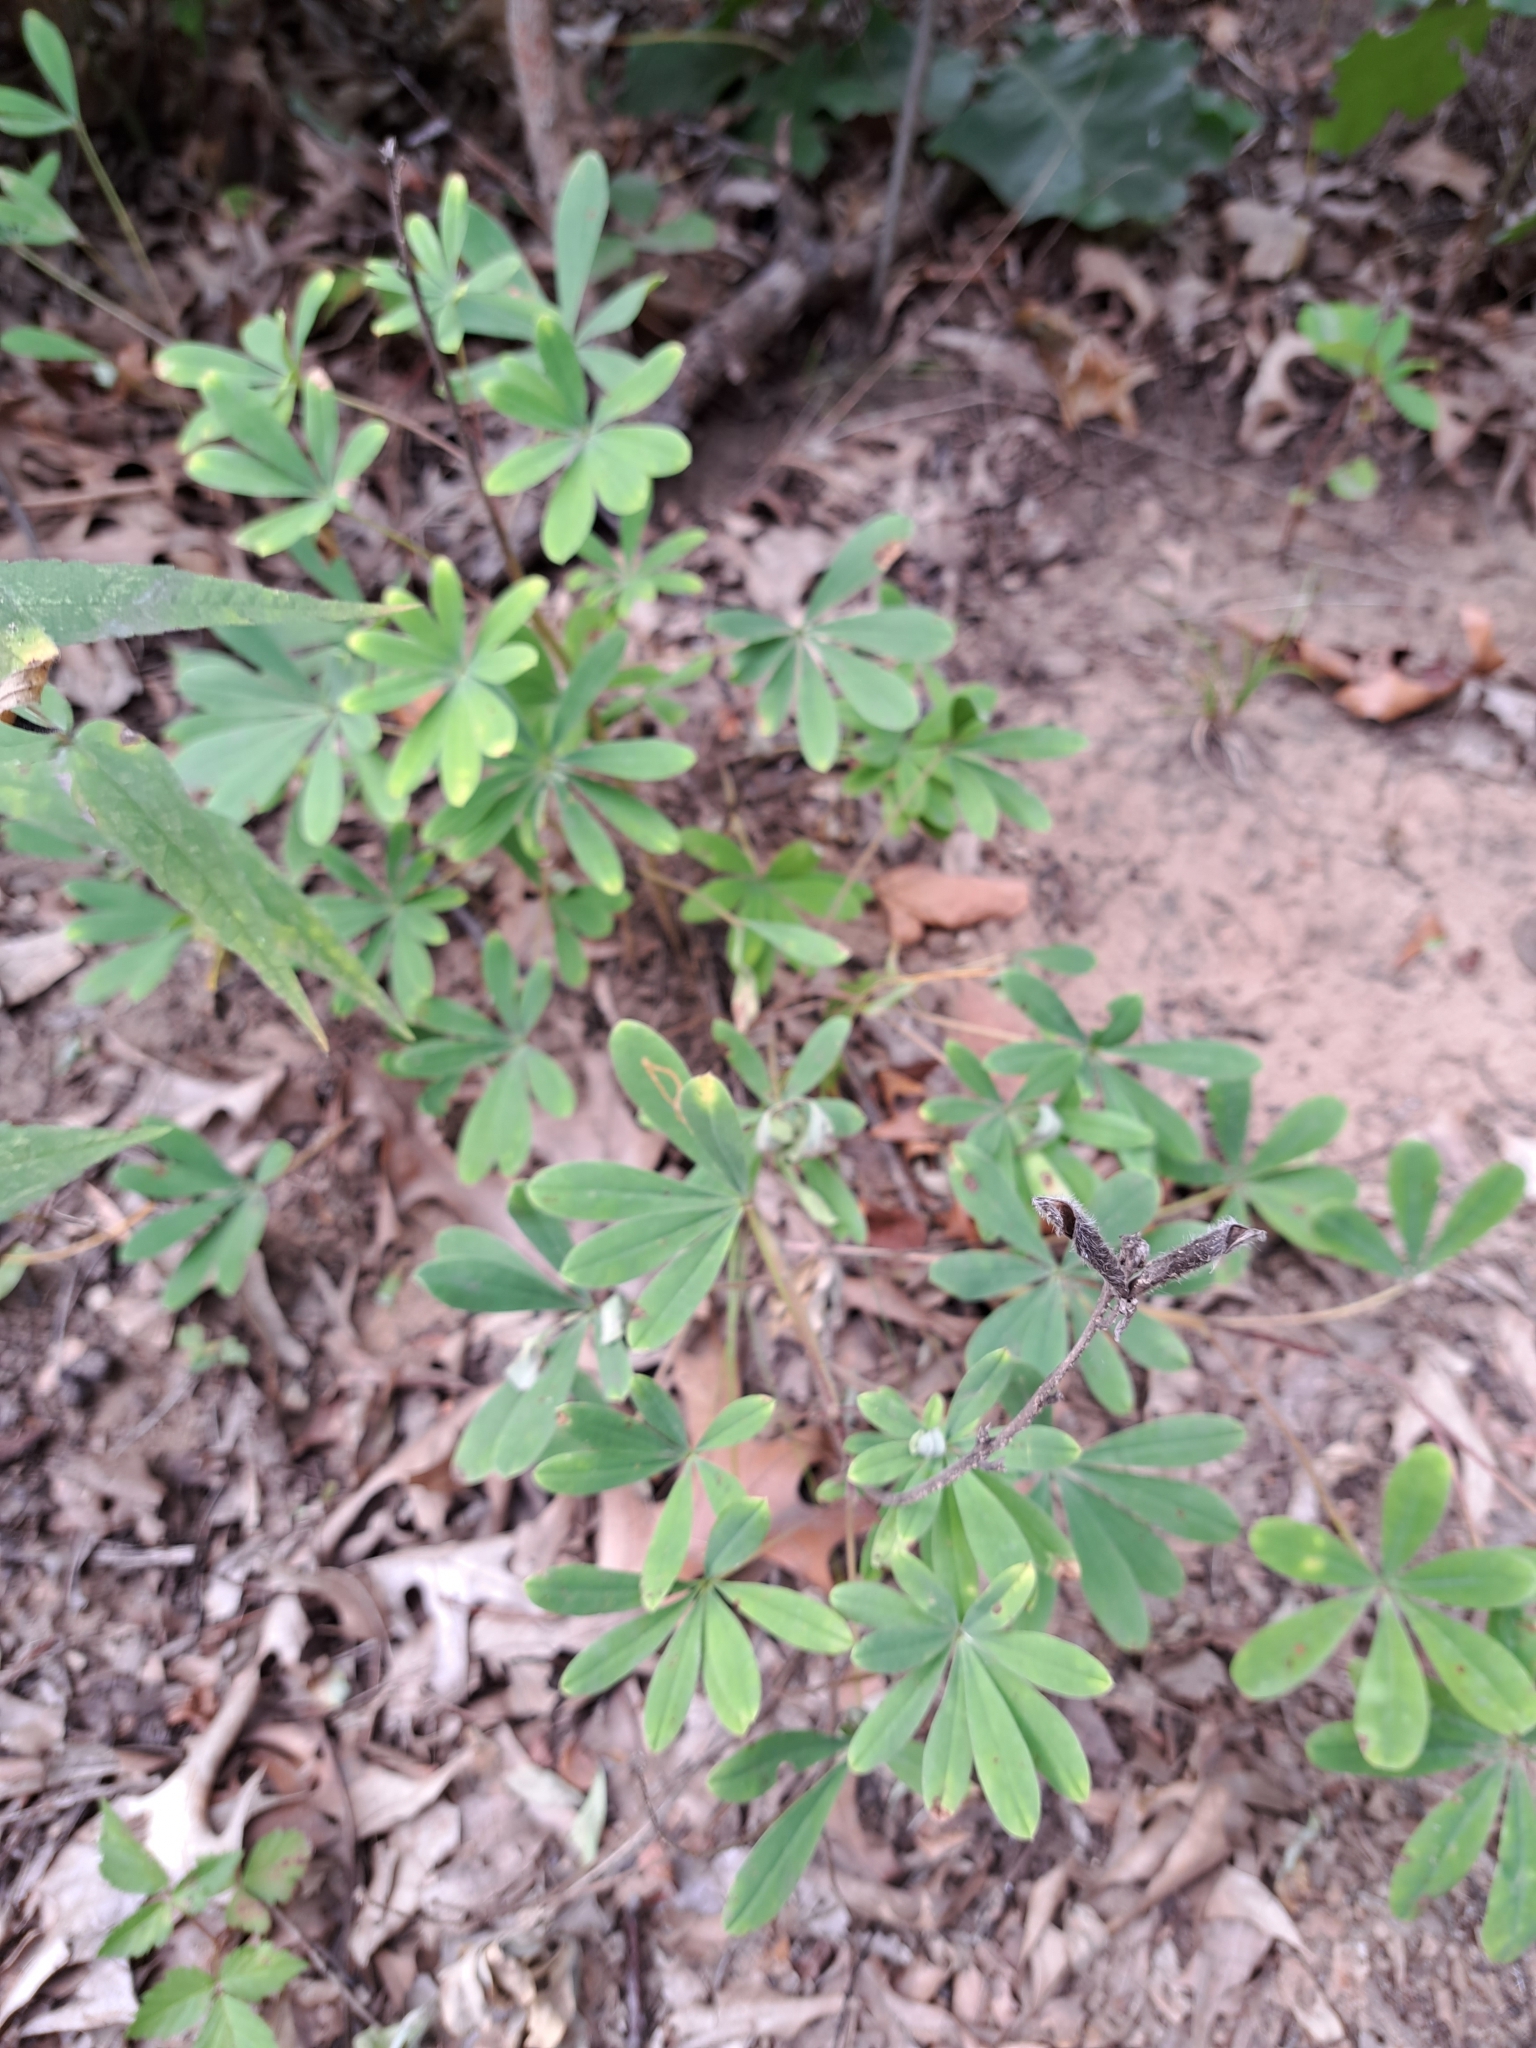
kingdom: Plantae
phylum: Tracheophyta
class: Magnoliopsida
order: Fabales
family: Fabaceae
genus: Lupinus
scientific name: Lupinus perennis
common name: Sundial lupine
